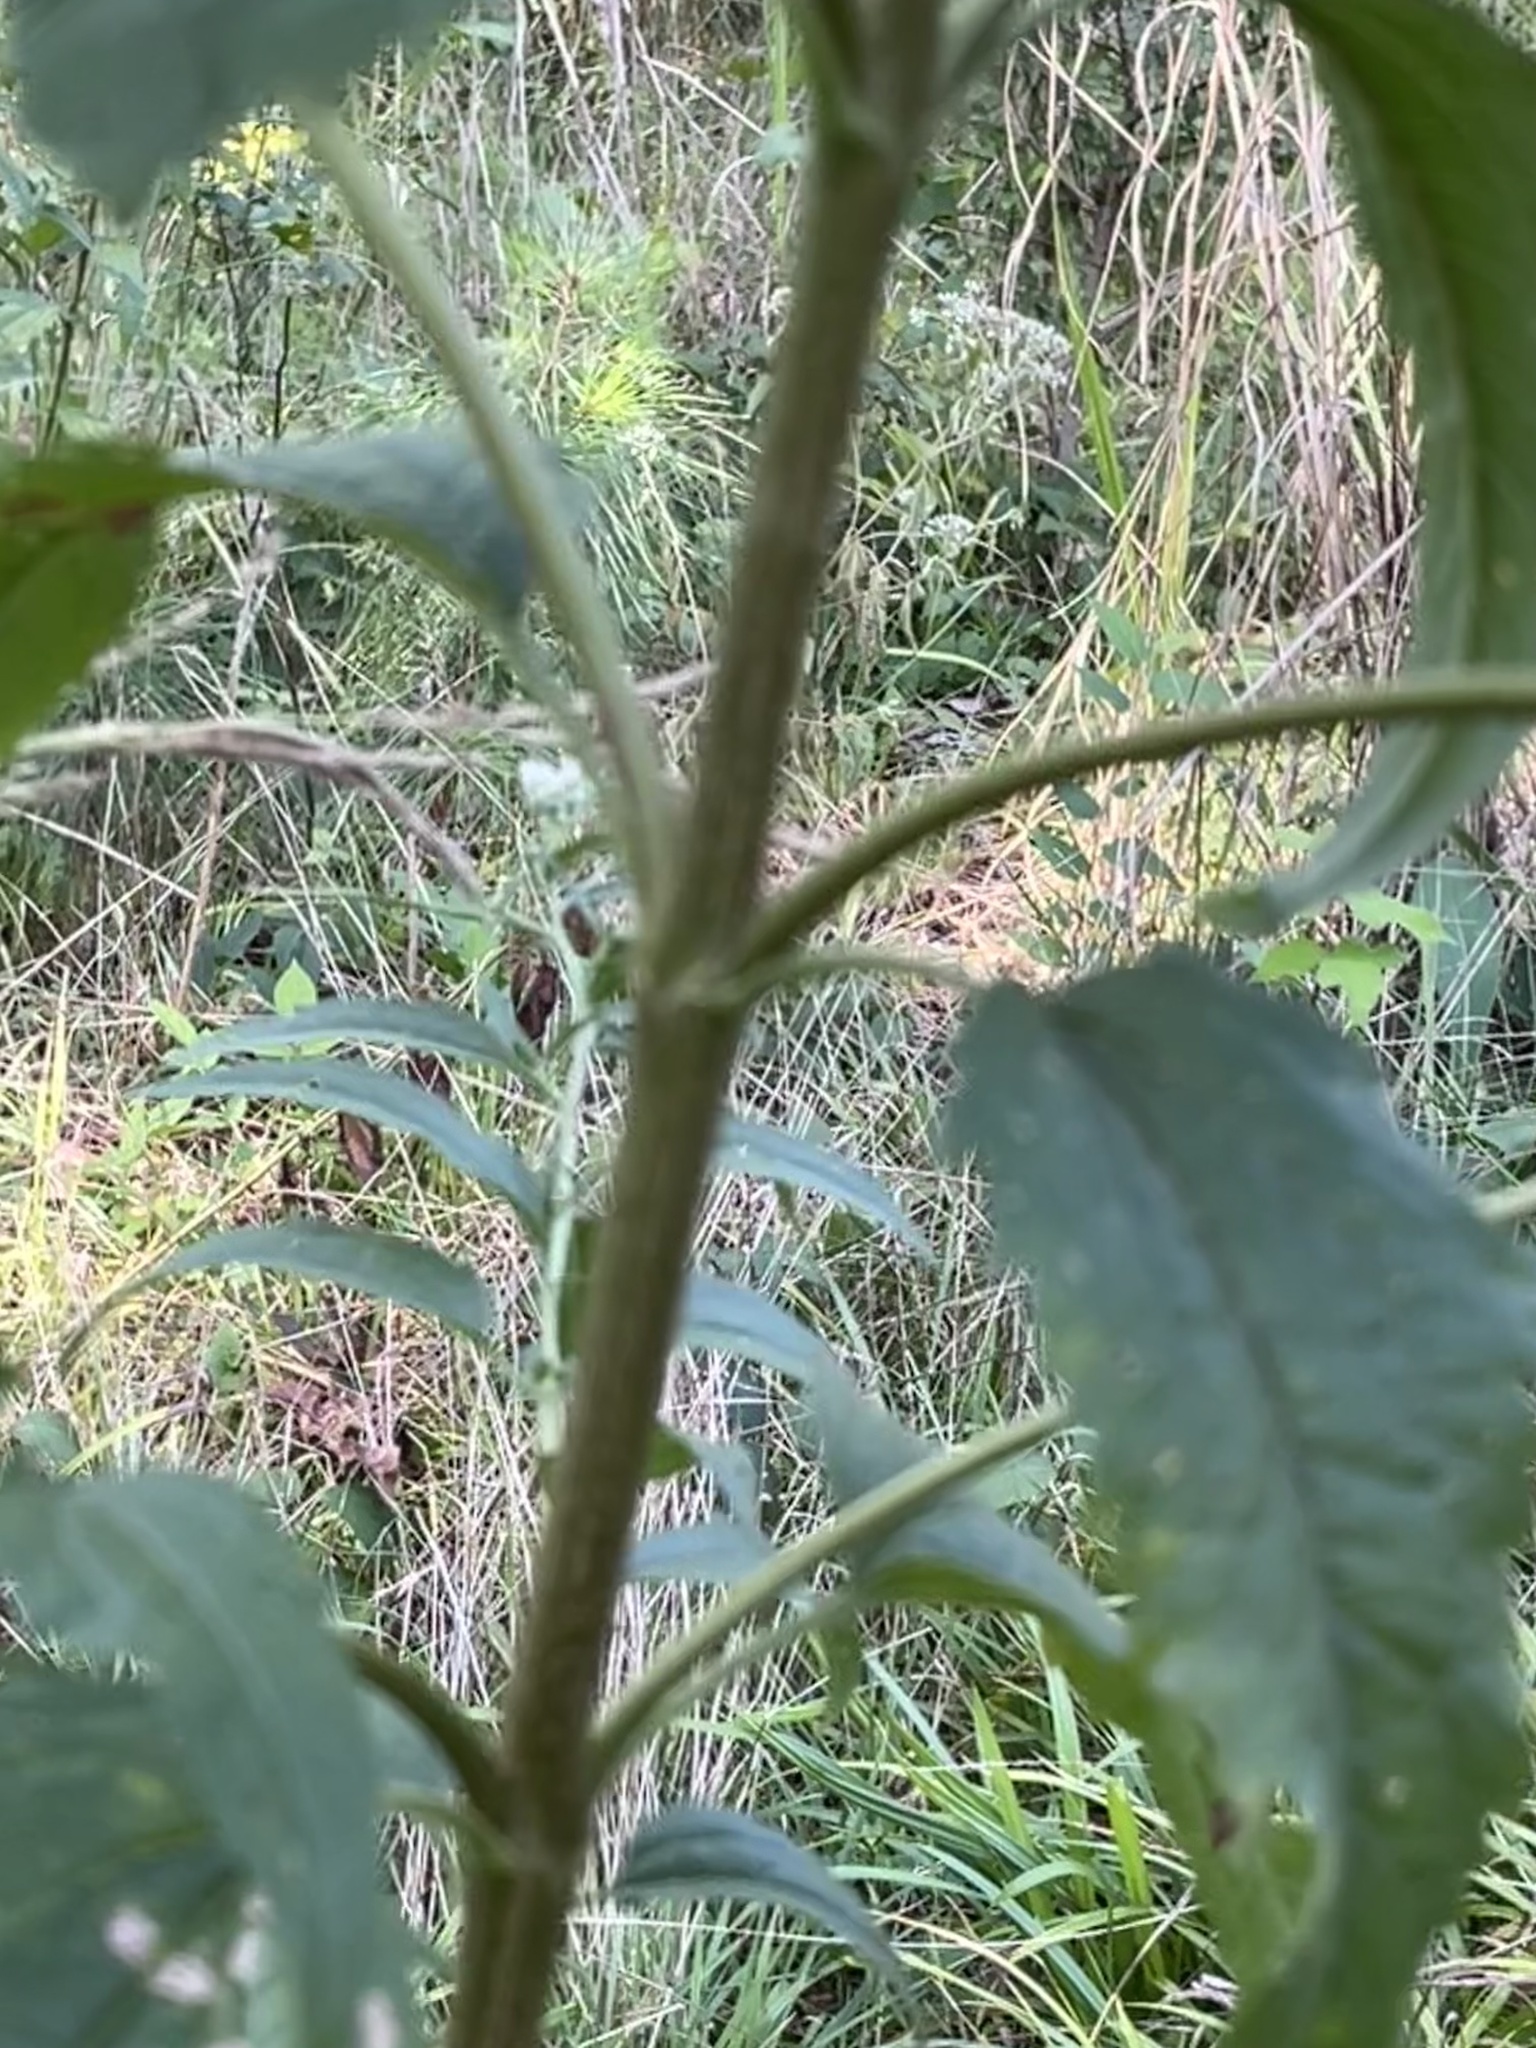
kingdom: Plantae
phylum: Tracheophyta
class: Magnoliopsida
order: Asterales
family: Asteraceae
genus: Eupatorium
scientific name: Eupatorium serotinum
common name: Late boneset
